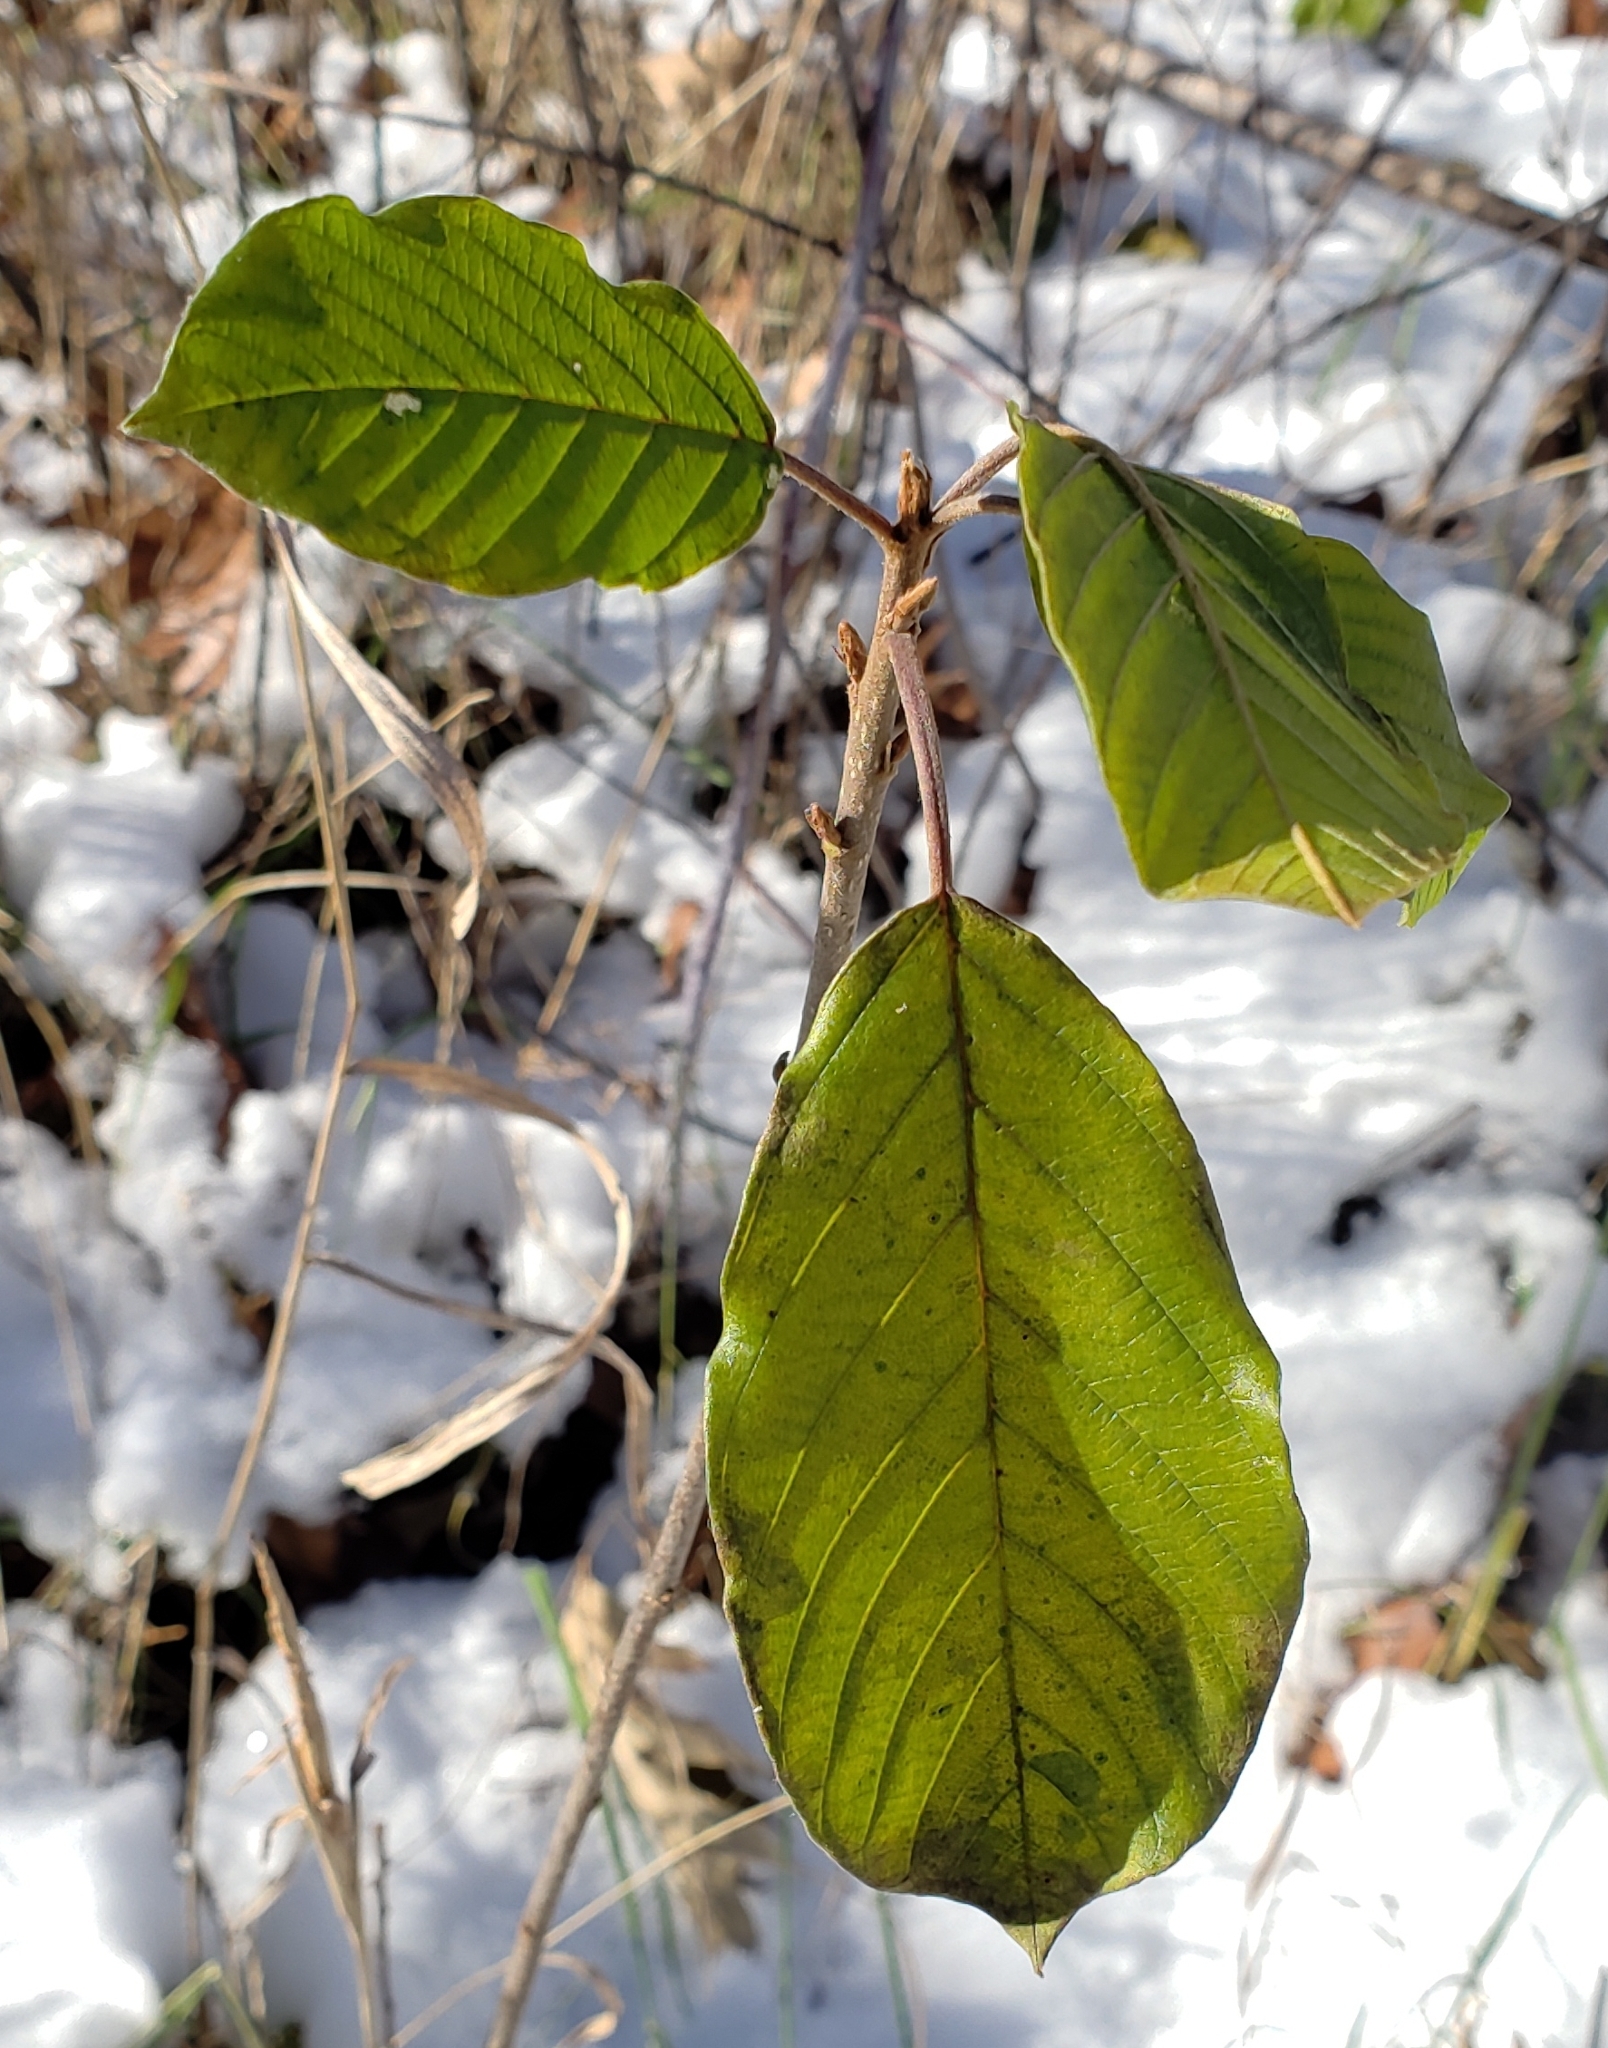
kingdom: Plantae
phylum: Tracheophyta
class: Magnoliopsida
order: Rosales
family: Rhamnaceae
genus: Frangula
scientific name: Frangula alnus
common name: Alder buckthorn
